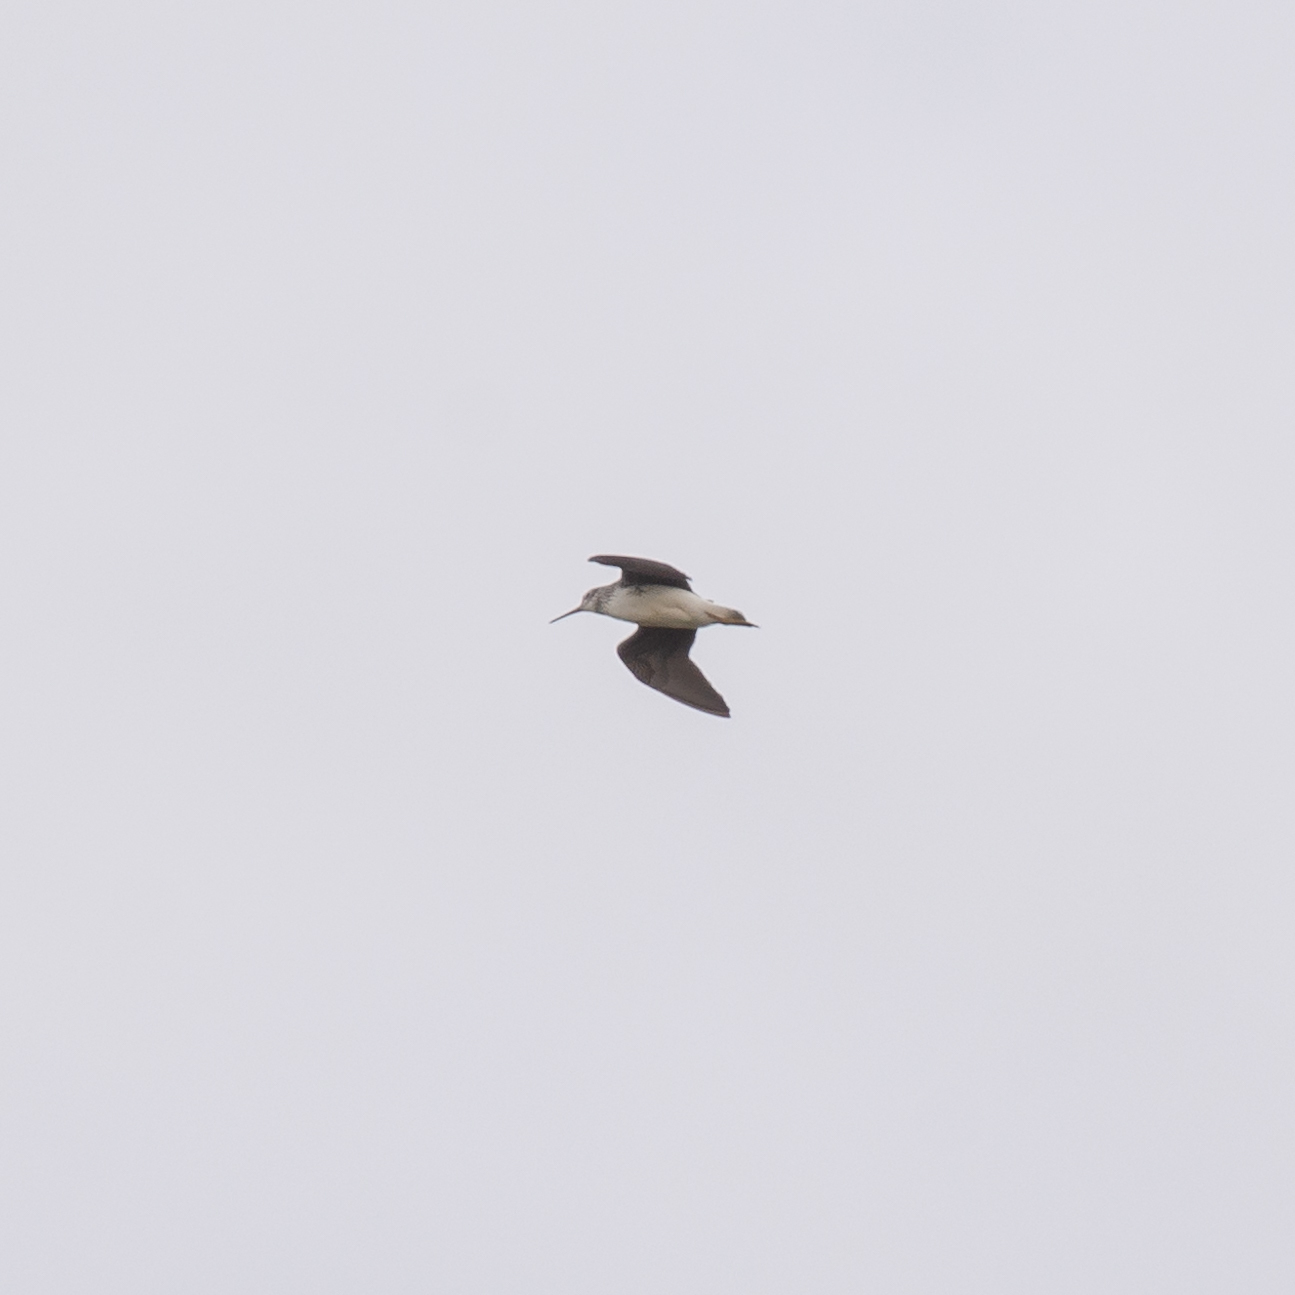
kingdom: Animalia
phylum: Chordata
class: Aves
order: Charadriiformes
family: Scolopacidae
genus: Tringa
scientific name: Tringa ochropus
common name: Green sandpiper
